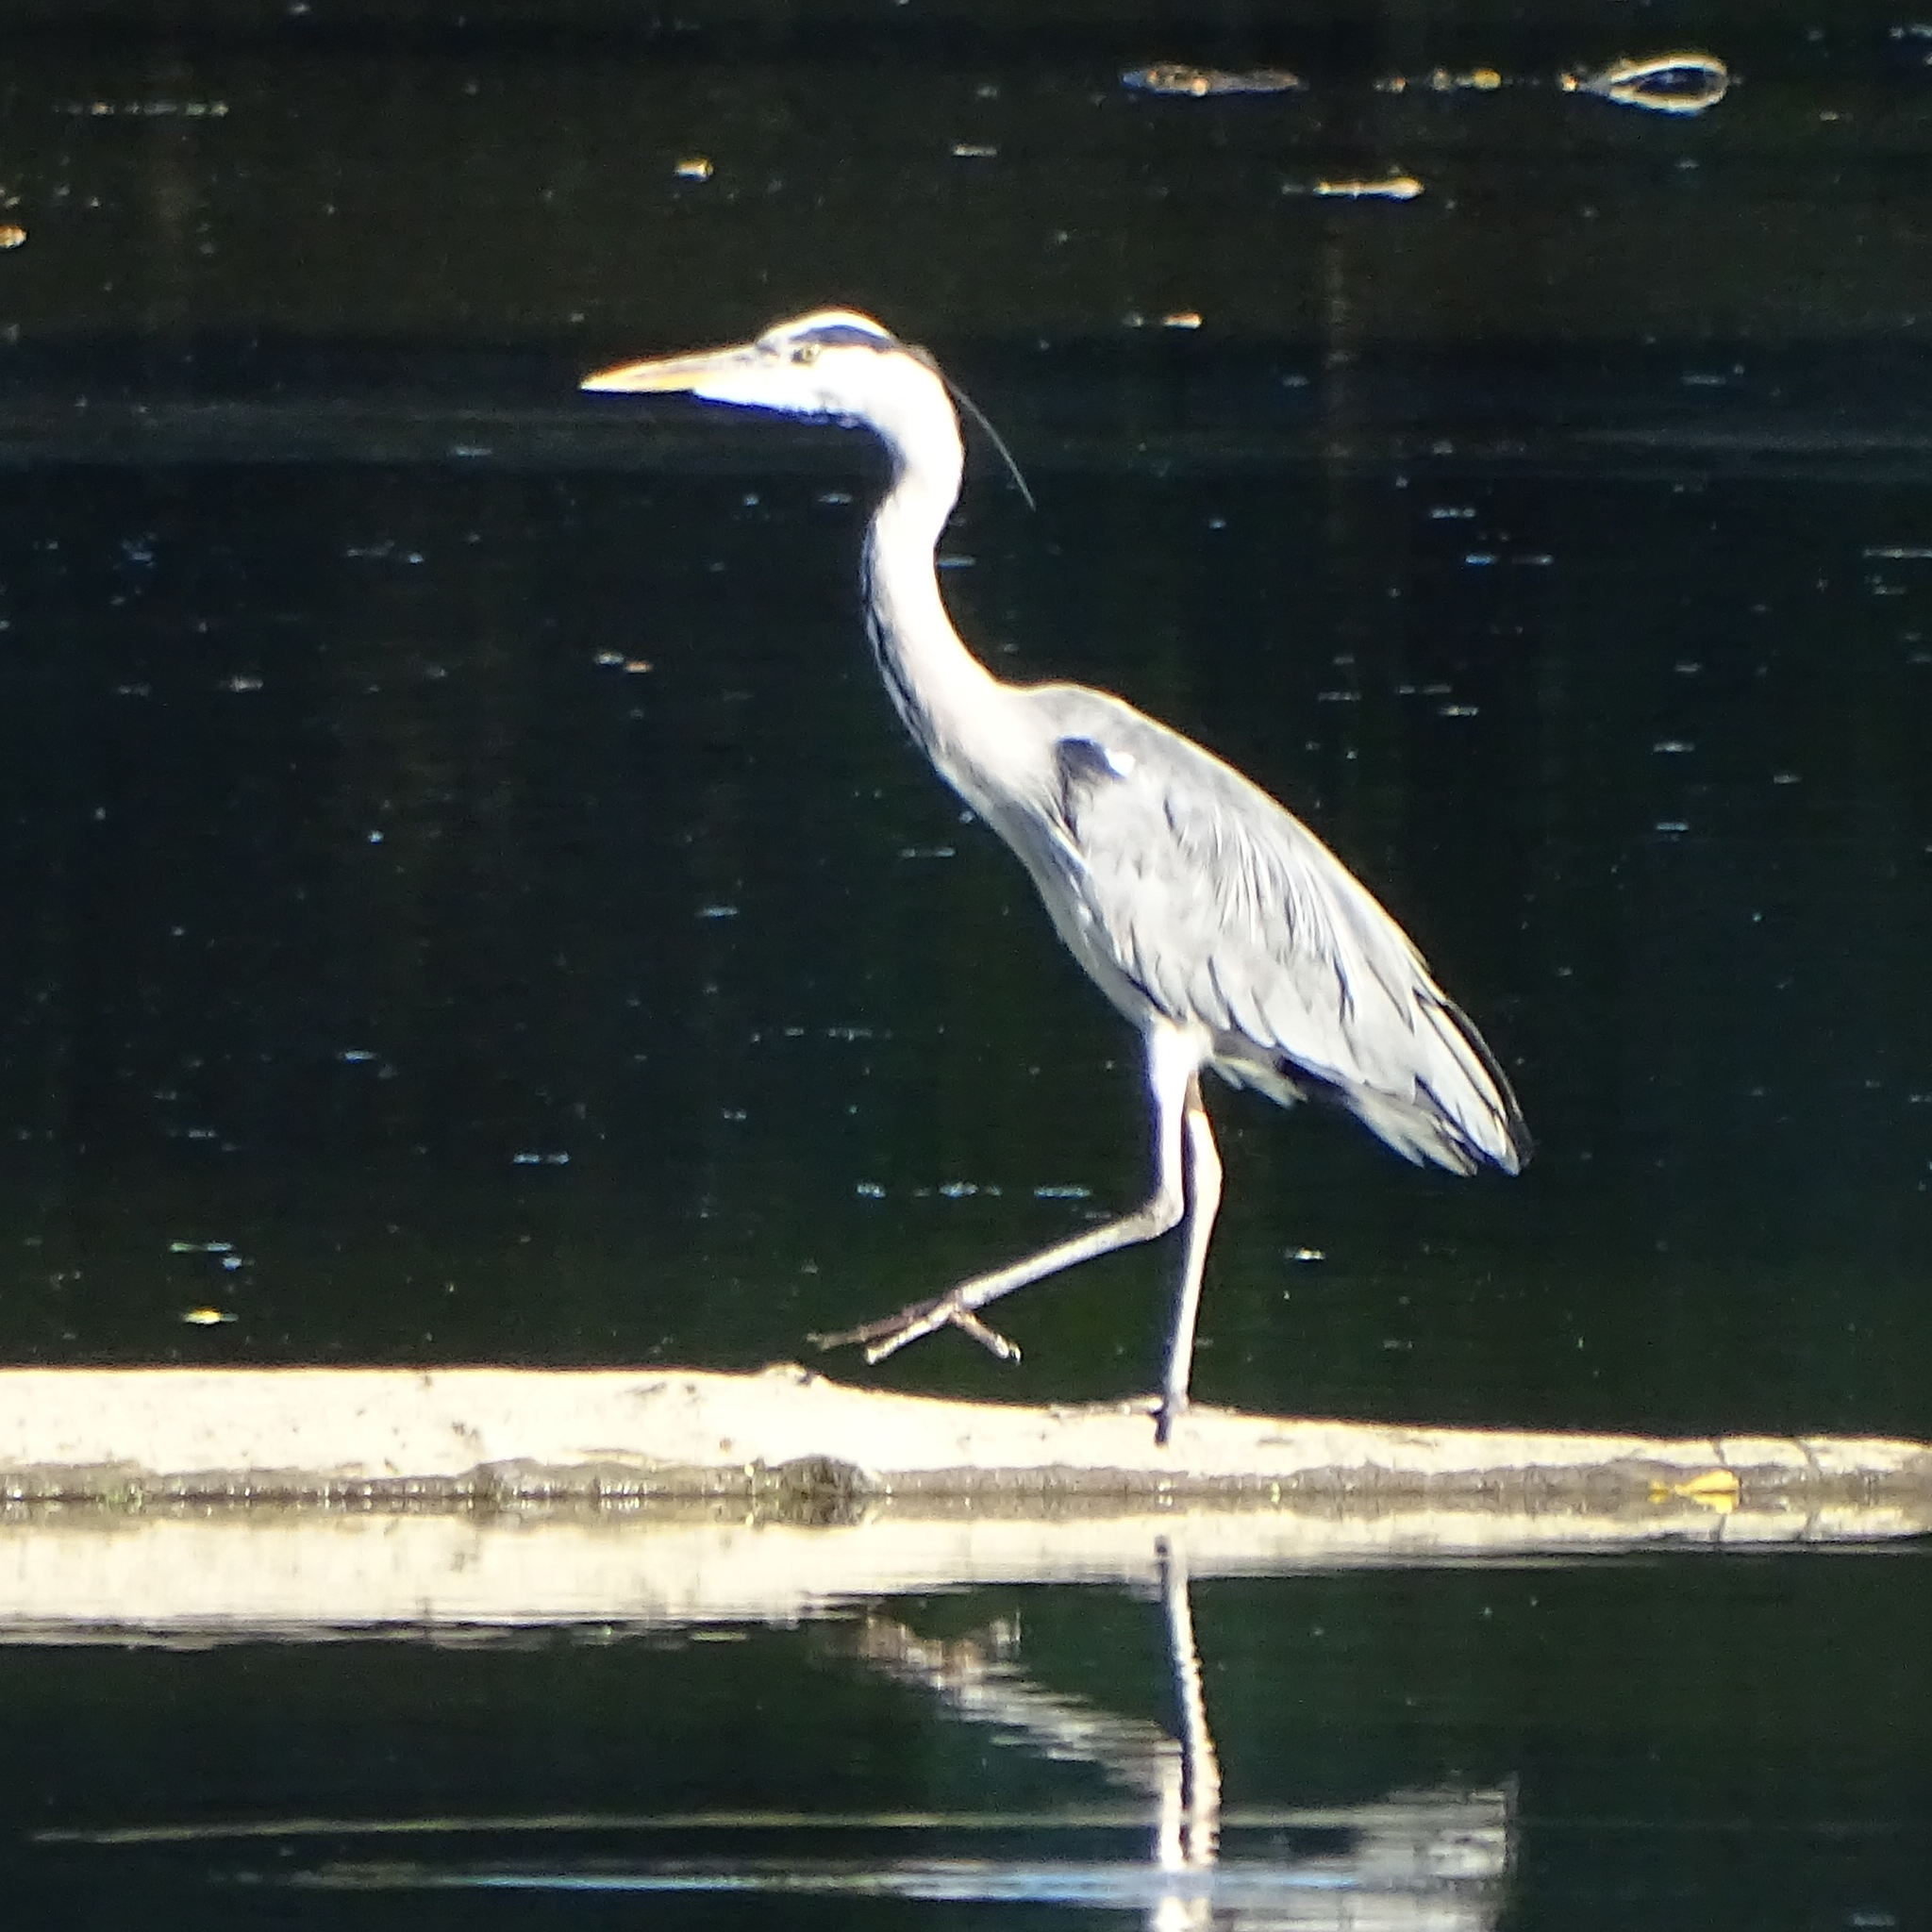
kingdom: Animalia
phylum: Chordata
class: Aves
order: Pelecaniformes
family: Ardeidae
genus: Ardea
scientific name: Ardea cinerea
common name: Grey heron
